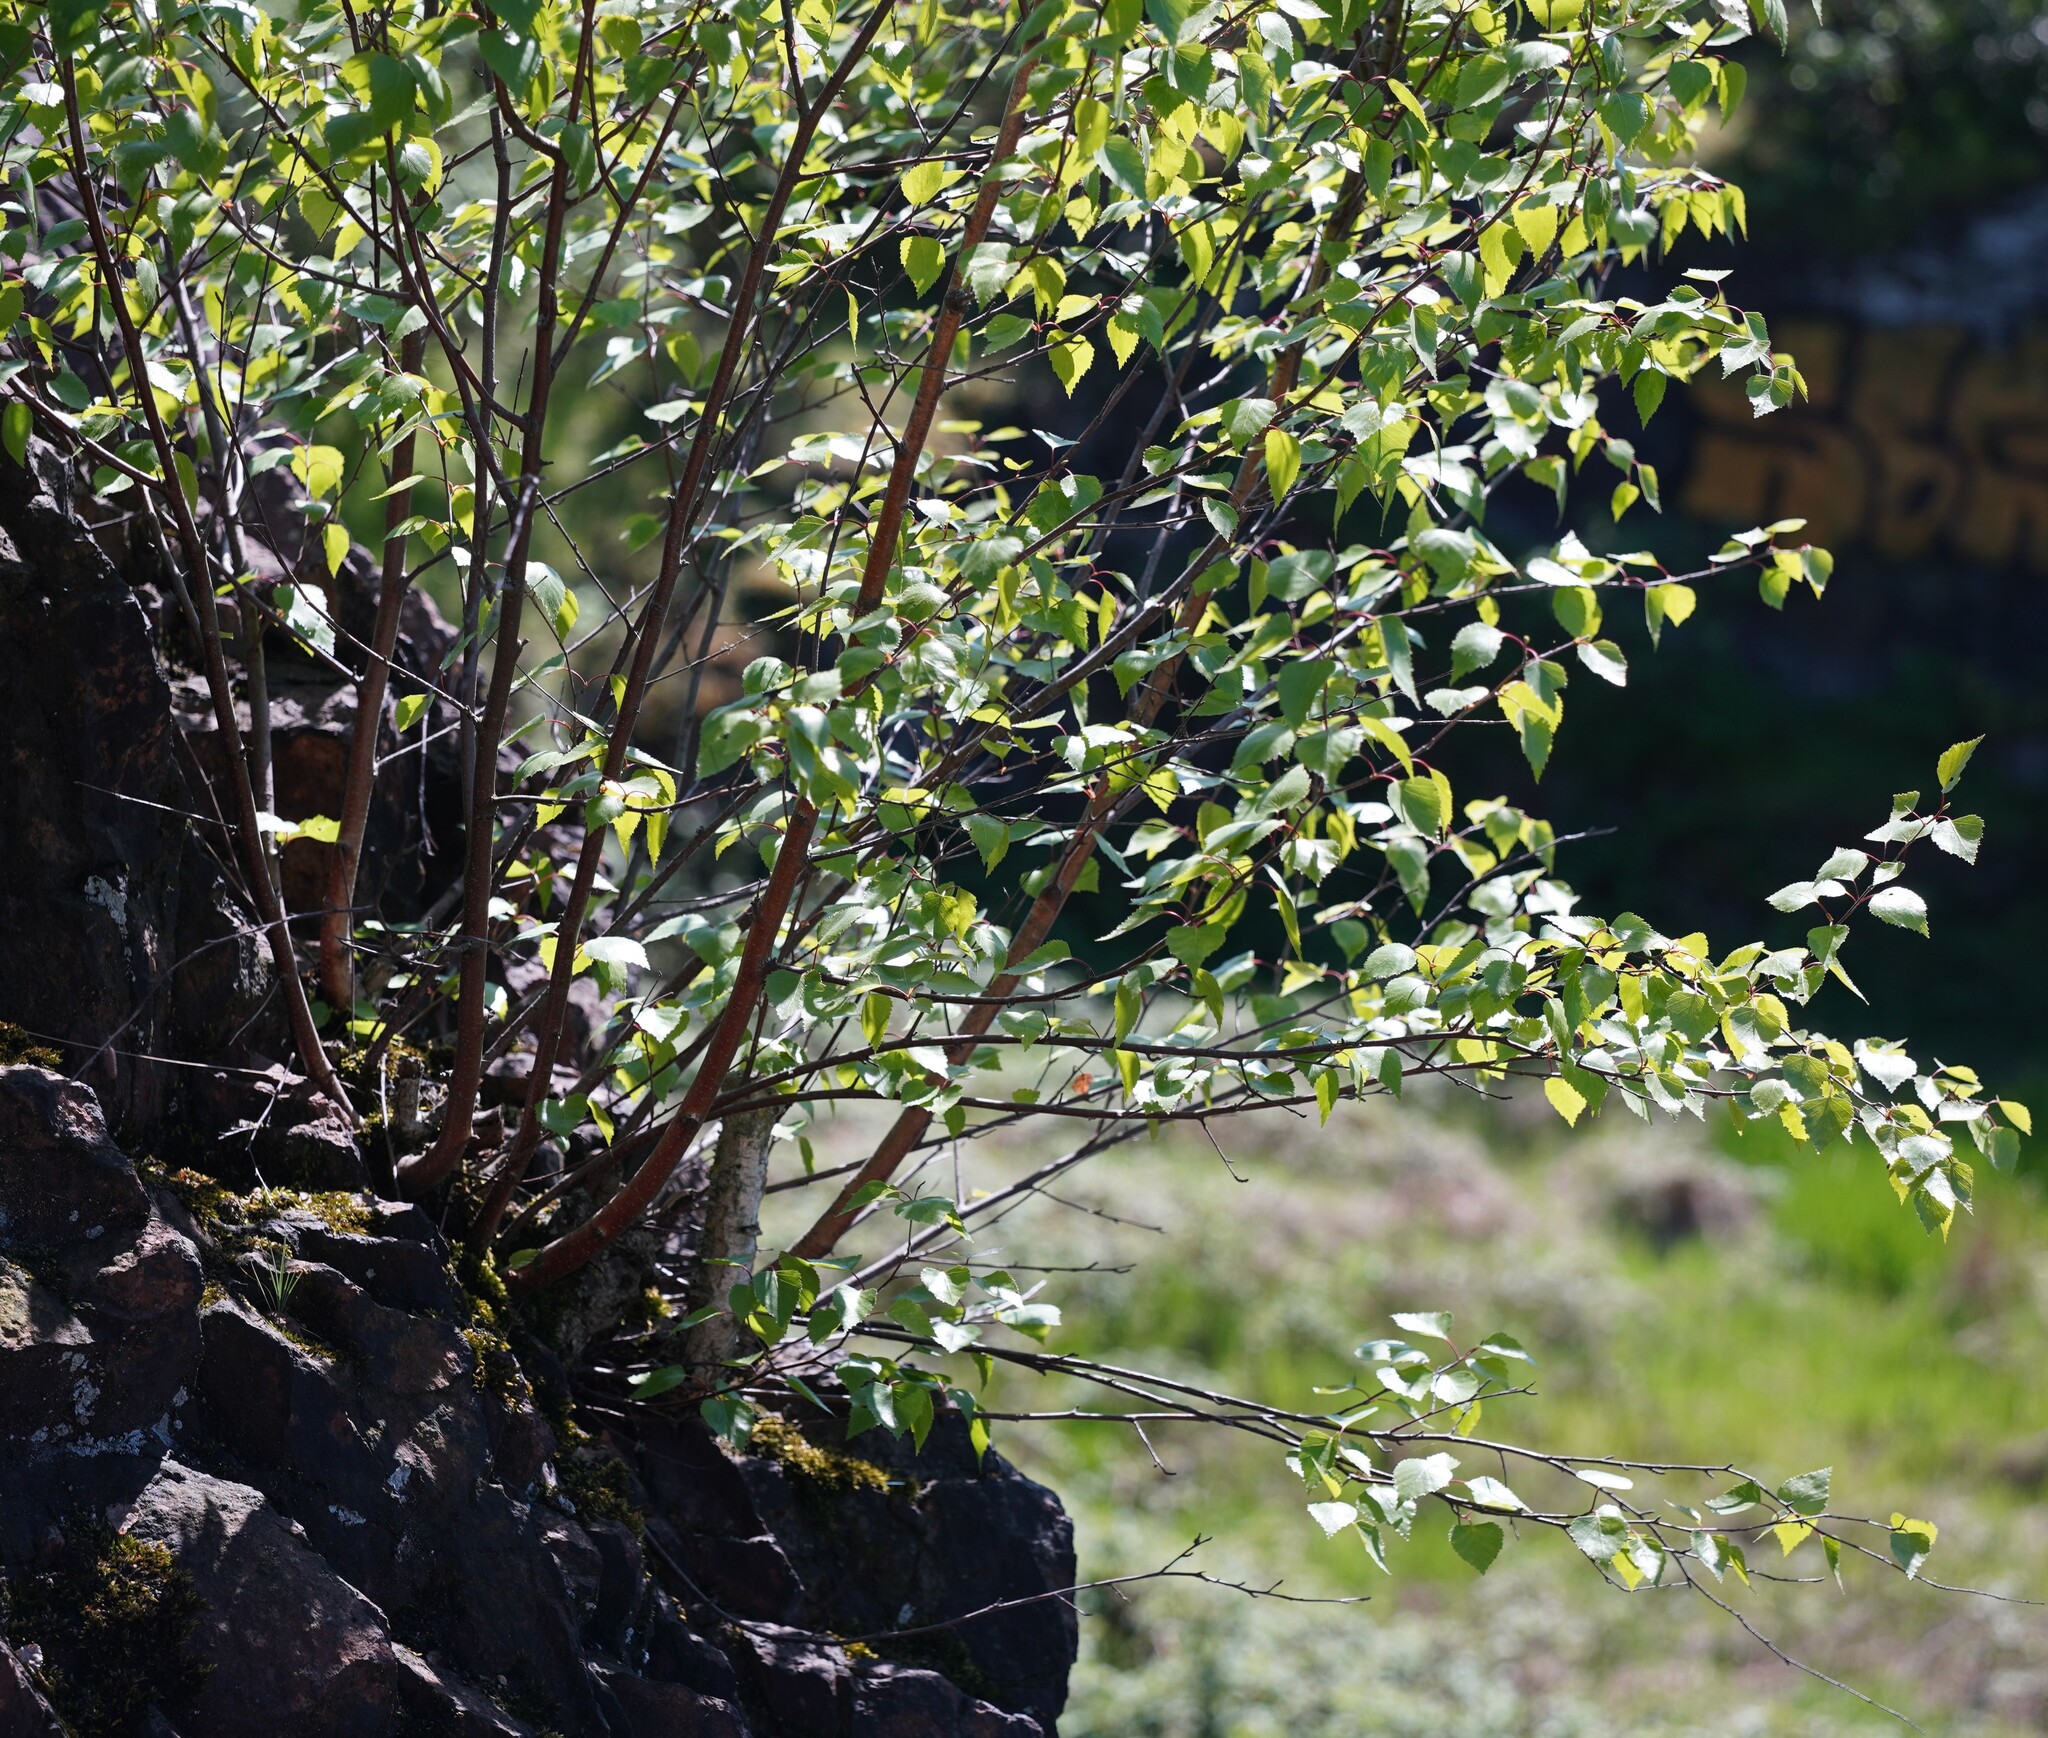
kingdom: Plantae
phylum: Tracheophyta
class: Magnoliopsida
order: Fagales
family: Betulaceae
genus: Betula
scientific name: Betula pendula
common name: Silver birch
